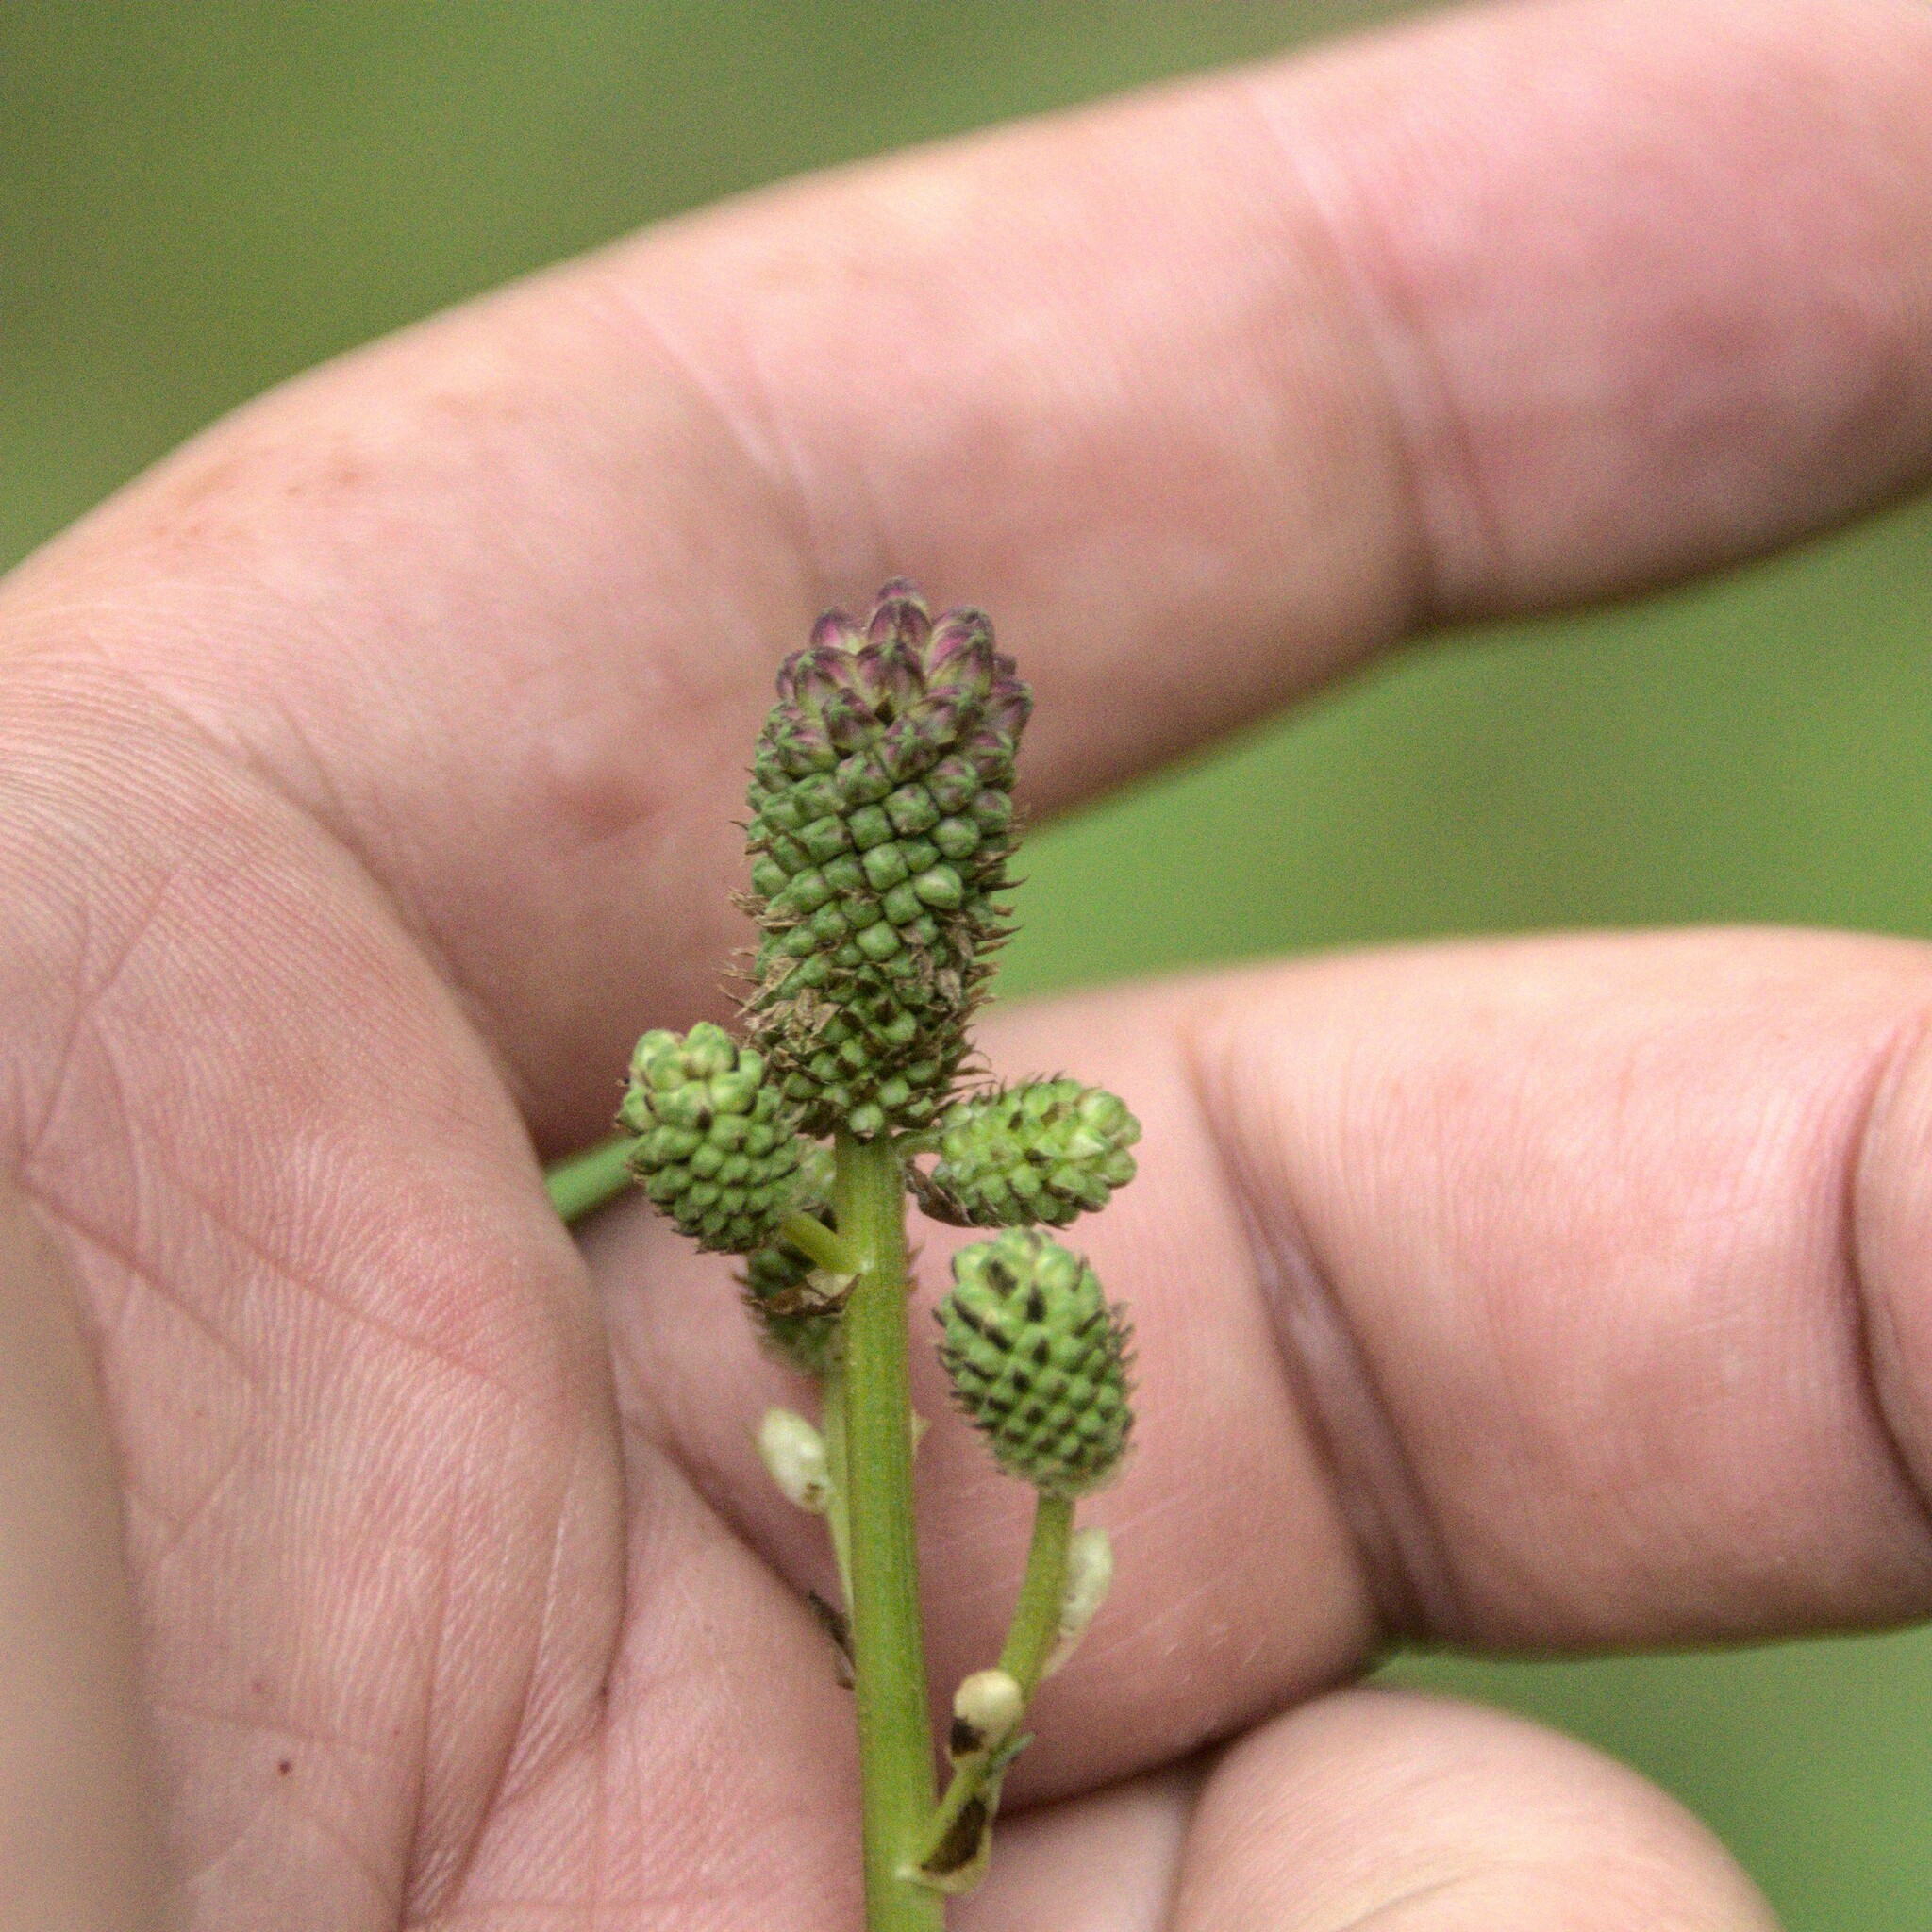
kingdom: Plantae
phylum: Tracheophyta
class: Magnoliopsida
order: Rosales
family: Rosaceae
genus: Sanguisorba
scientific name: Sanguisorba officinalis
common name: Great burnet
